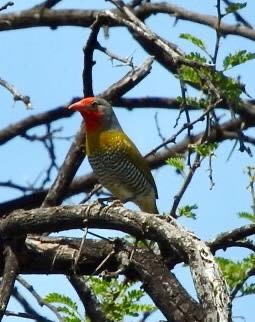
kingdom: Animalia
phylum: Chordata
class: Aves
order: Passeriformes
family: Estrildidae
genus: Pytilia
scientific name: Pytilia melba
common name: Green-winged pytilia
